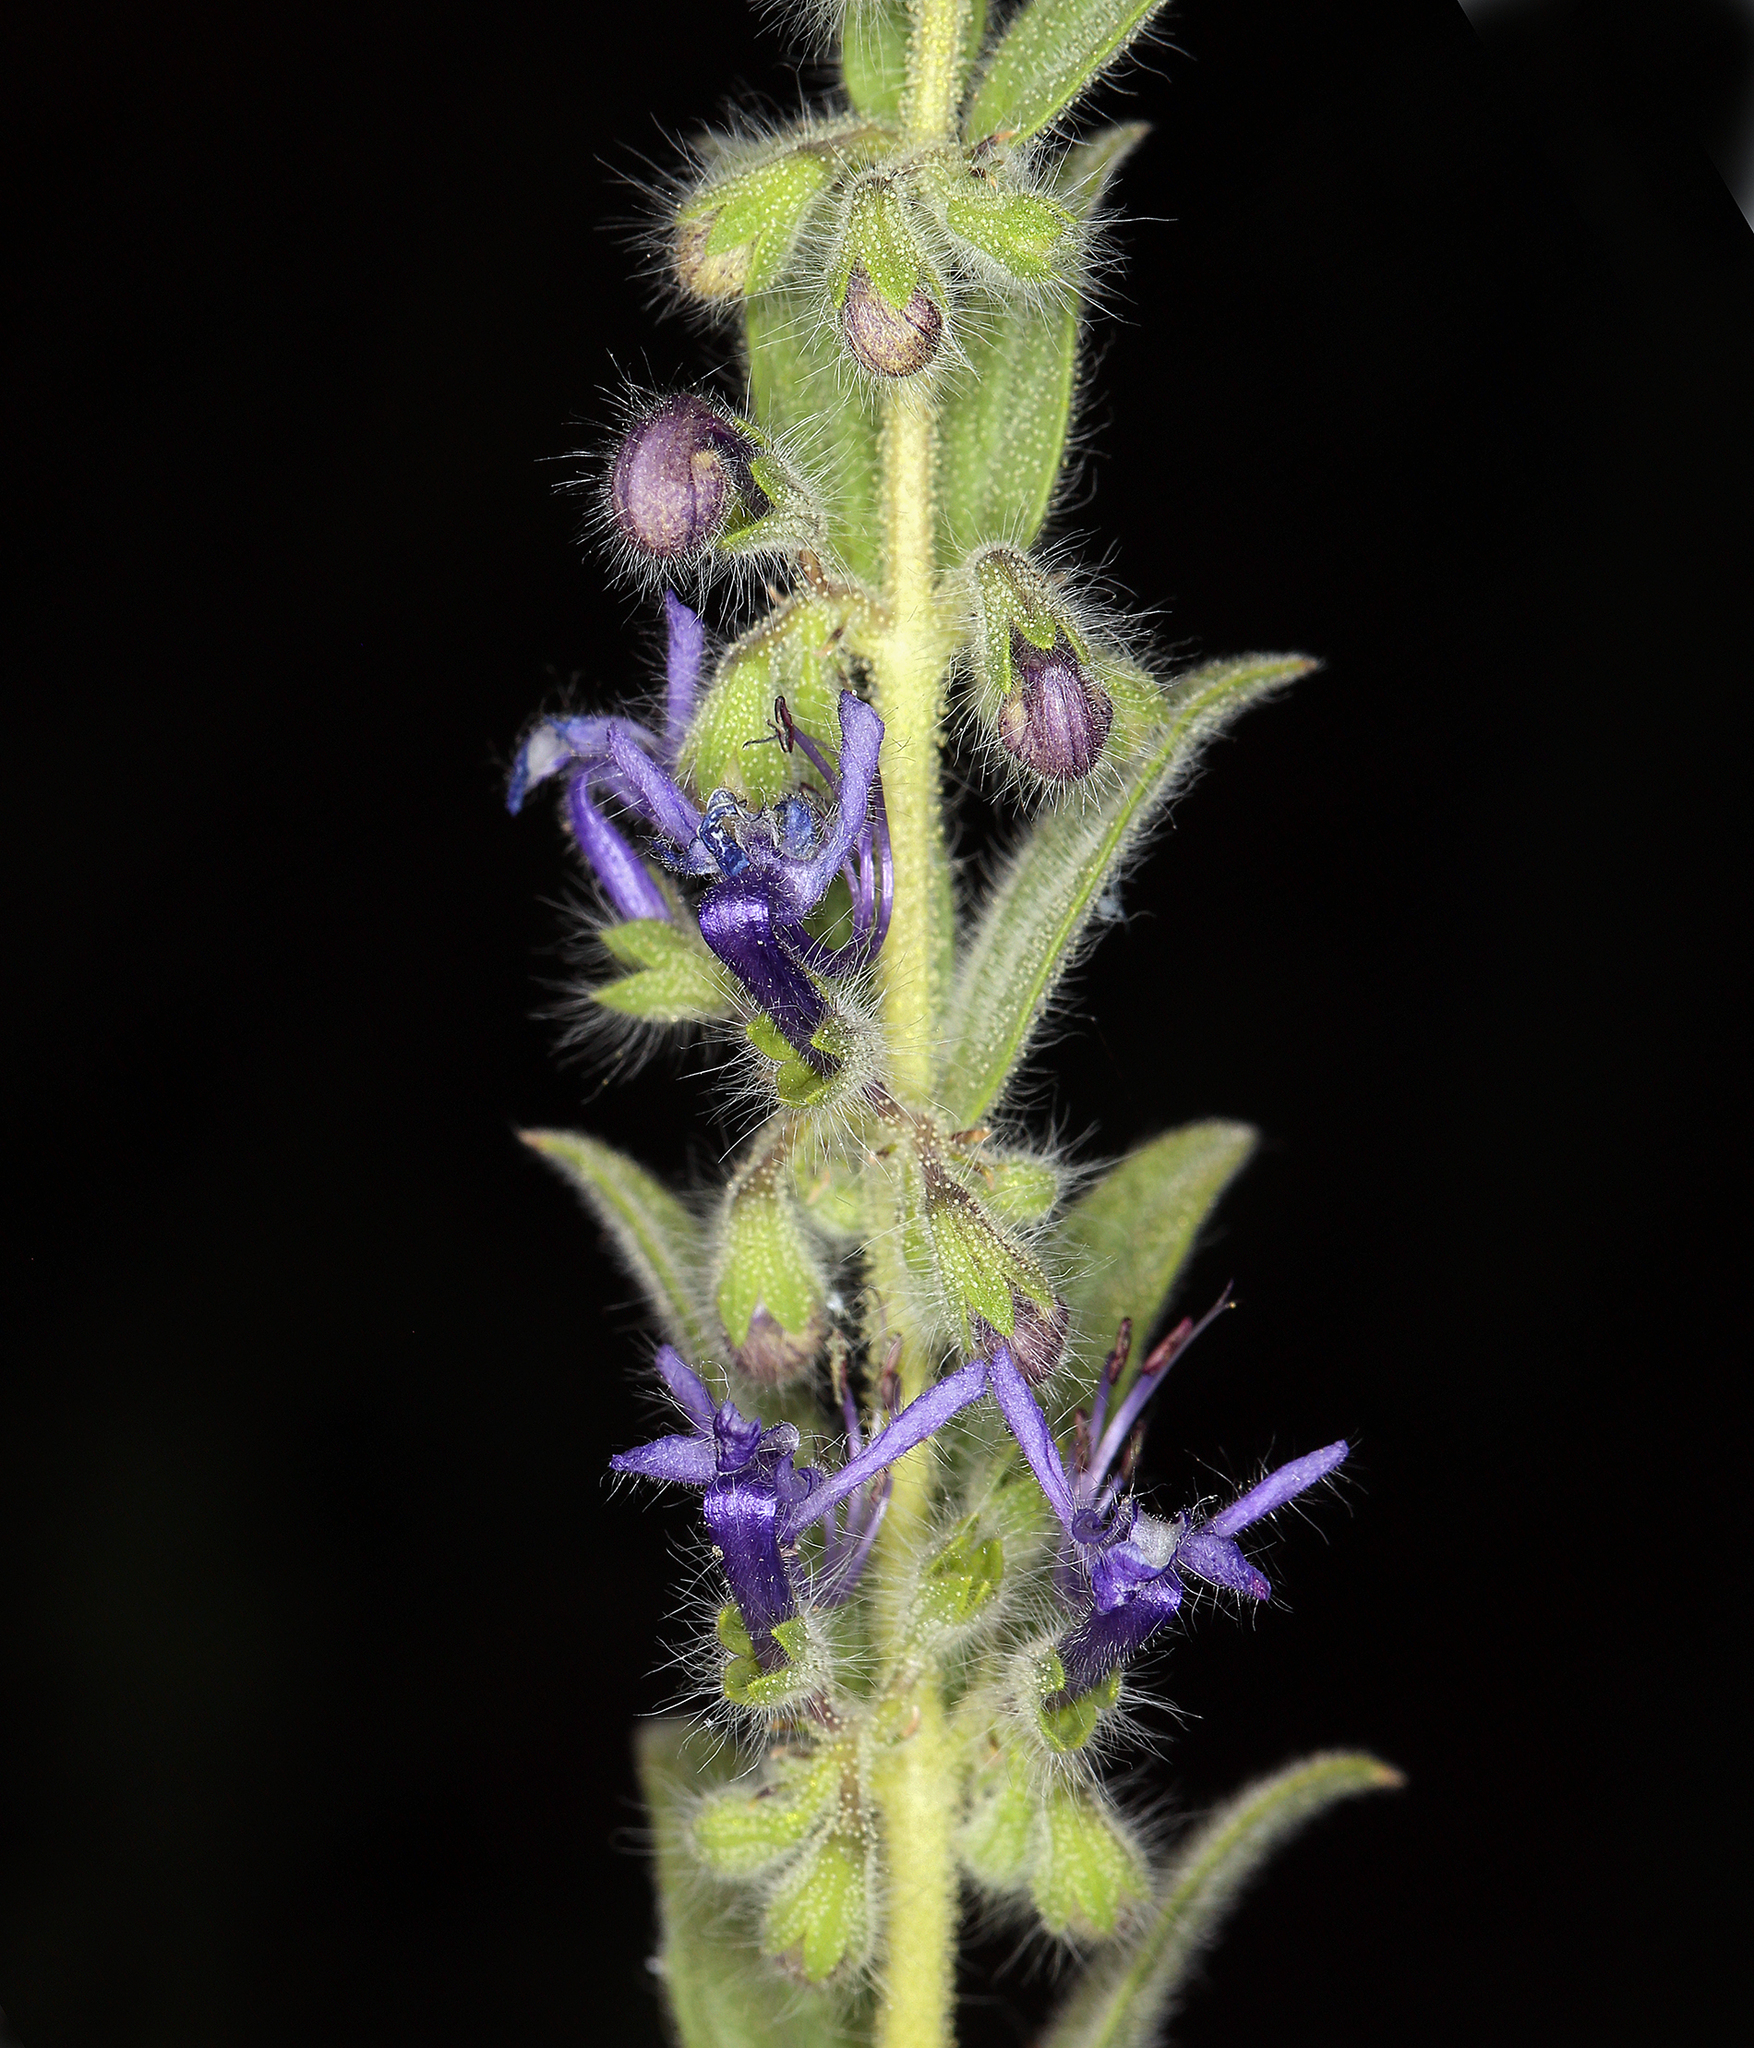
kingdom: Plantae
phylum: Tracheophyta
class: Magnoliopsida
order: Lamiales
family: Lamiaceae
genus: Trichostema
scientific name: Trichostema lanceolatum
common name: Vinegar-weed
